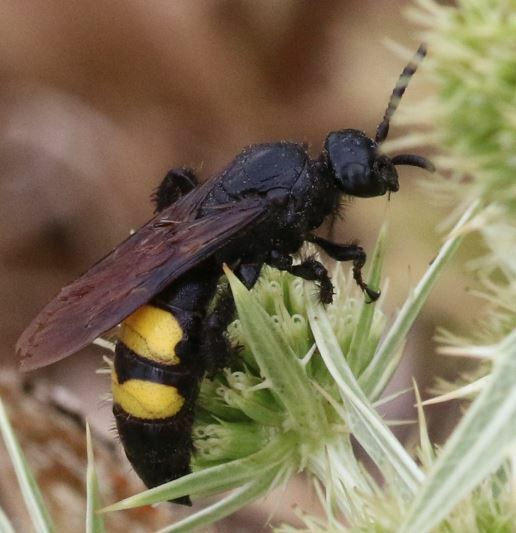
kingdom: Animalia
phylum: Arthropoda
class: Insecta
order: Hymenoptera
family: Scoliidae
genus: Scolia
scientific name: Scolia hirta
